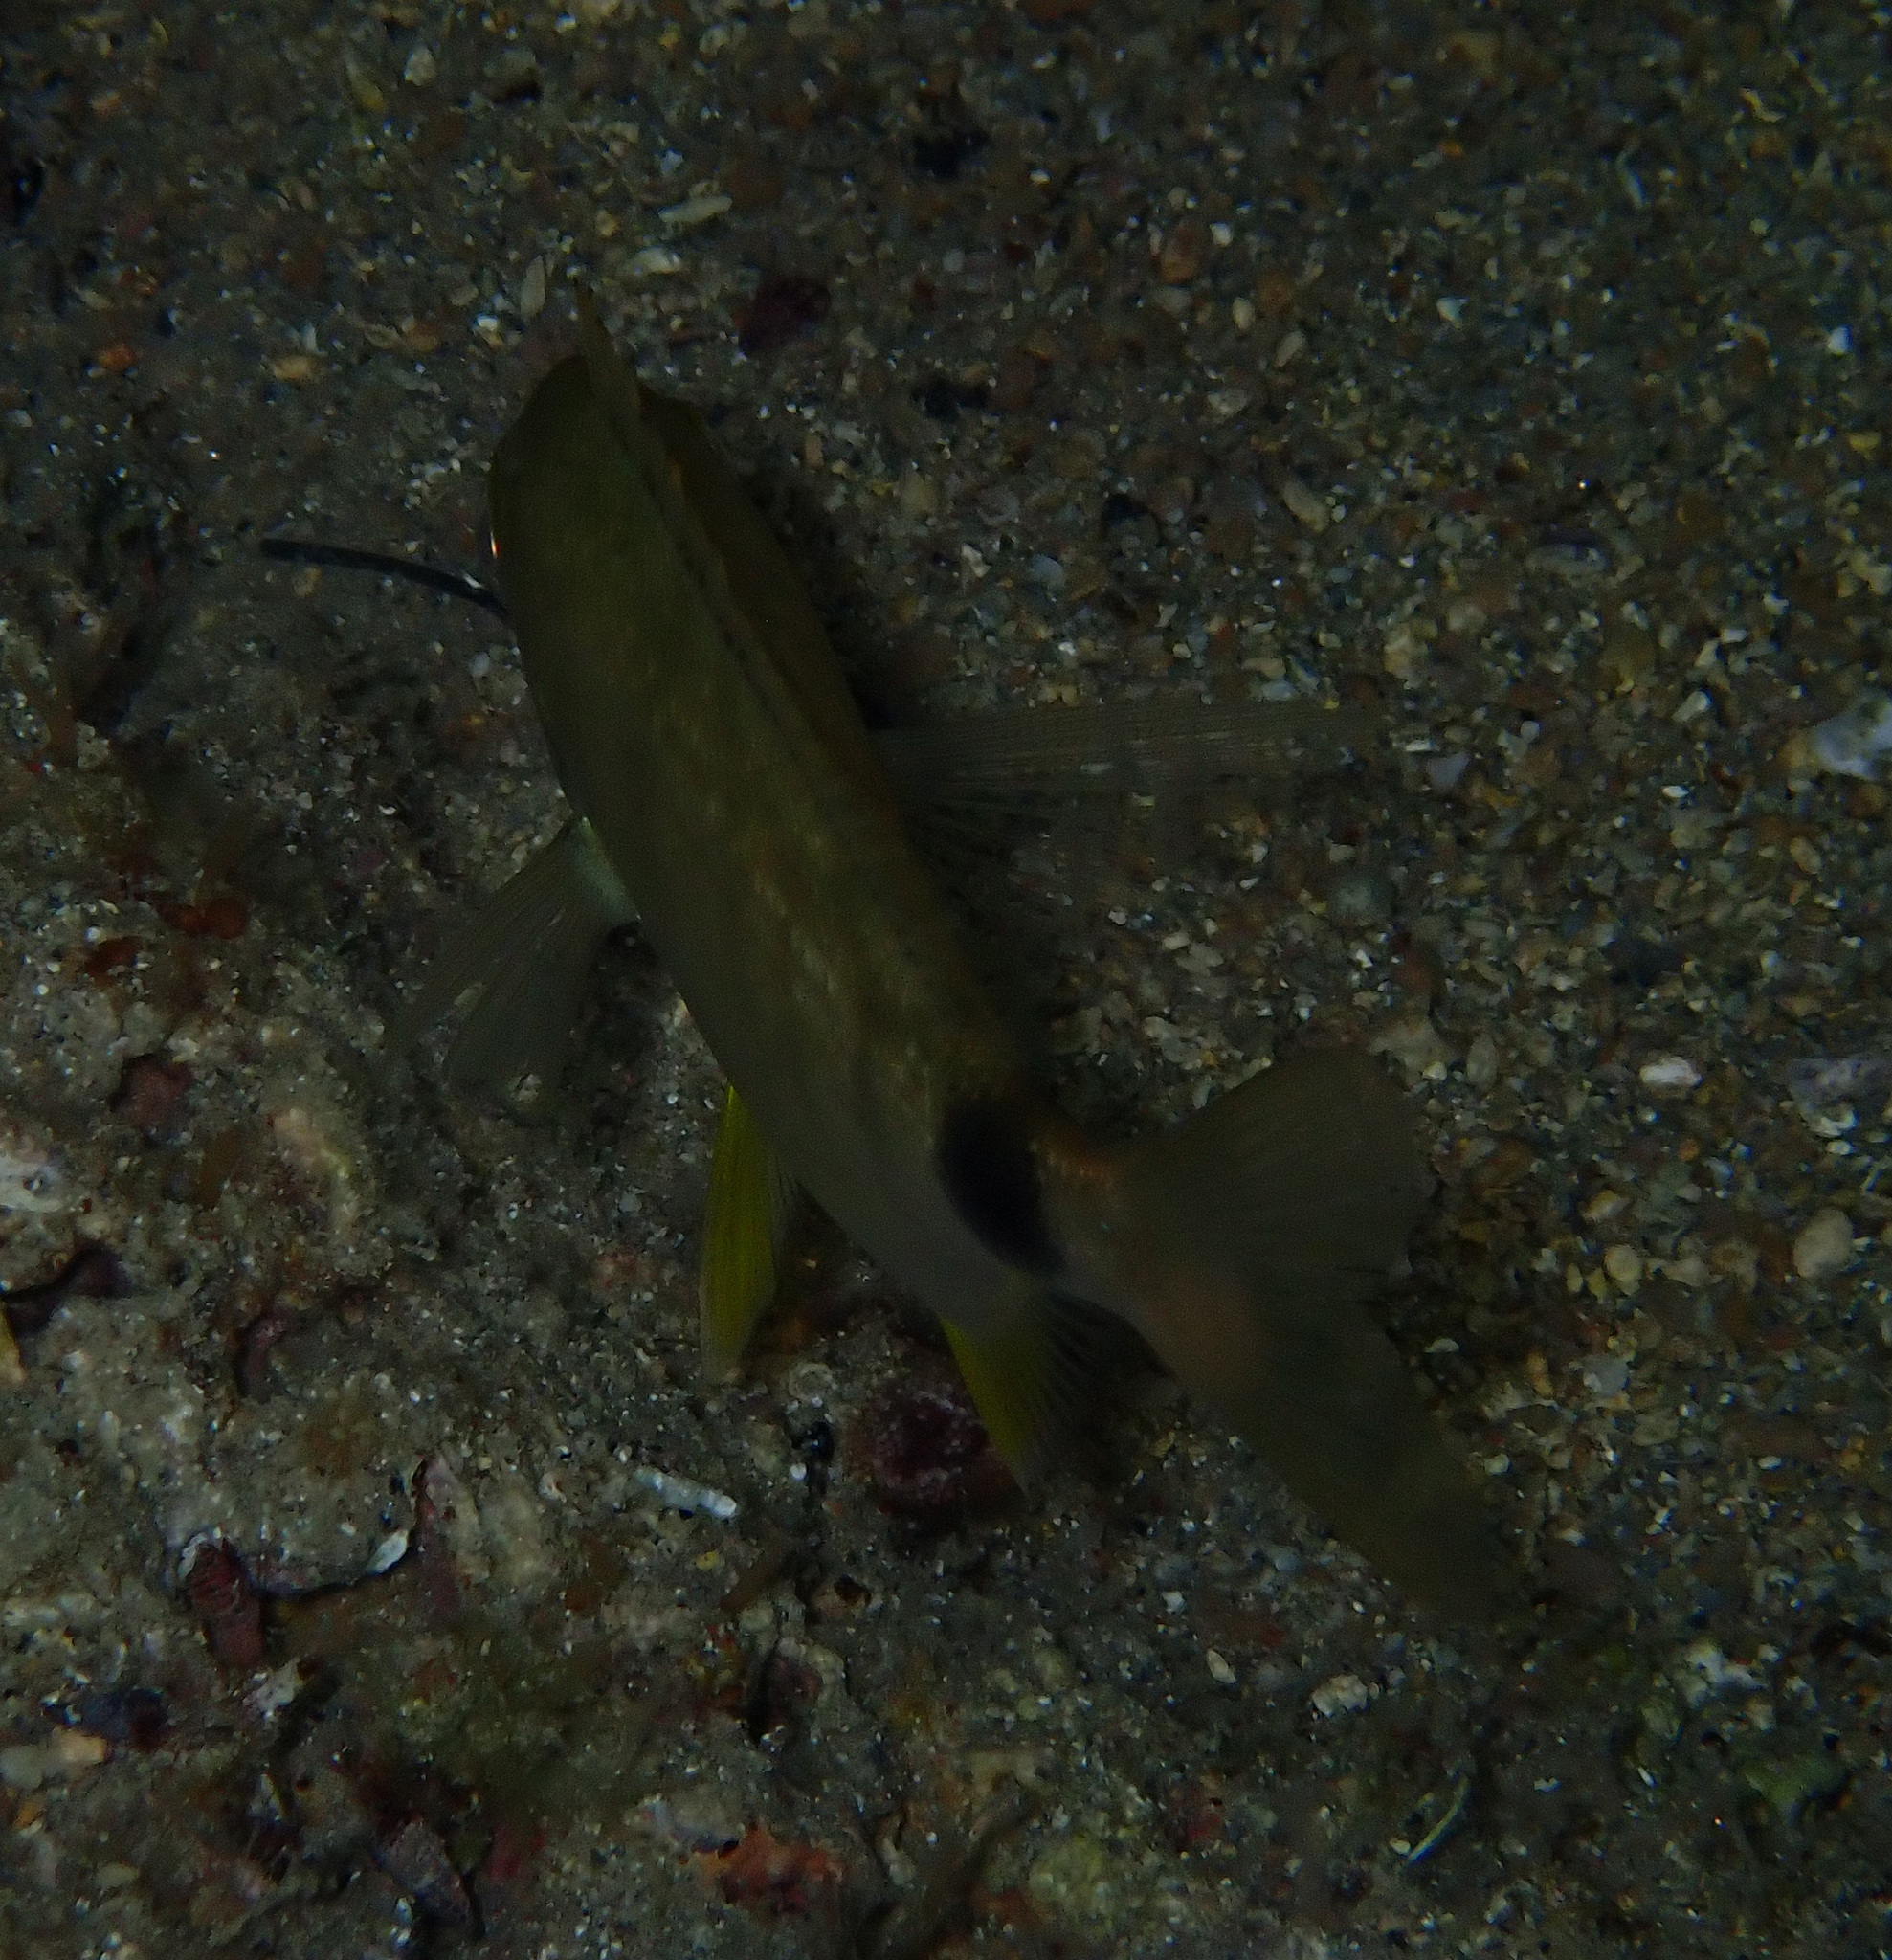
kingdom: Animalia
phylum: Chordata
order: Perciformes
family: Sparidae
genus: Diplodus
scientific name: Diplodus annularis
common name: Annular seabream
